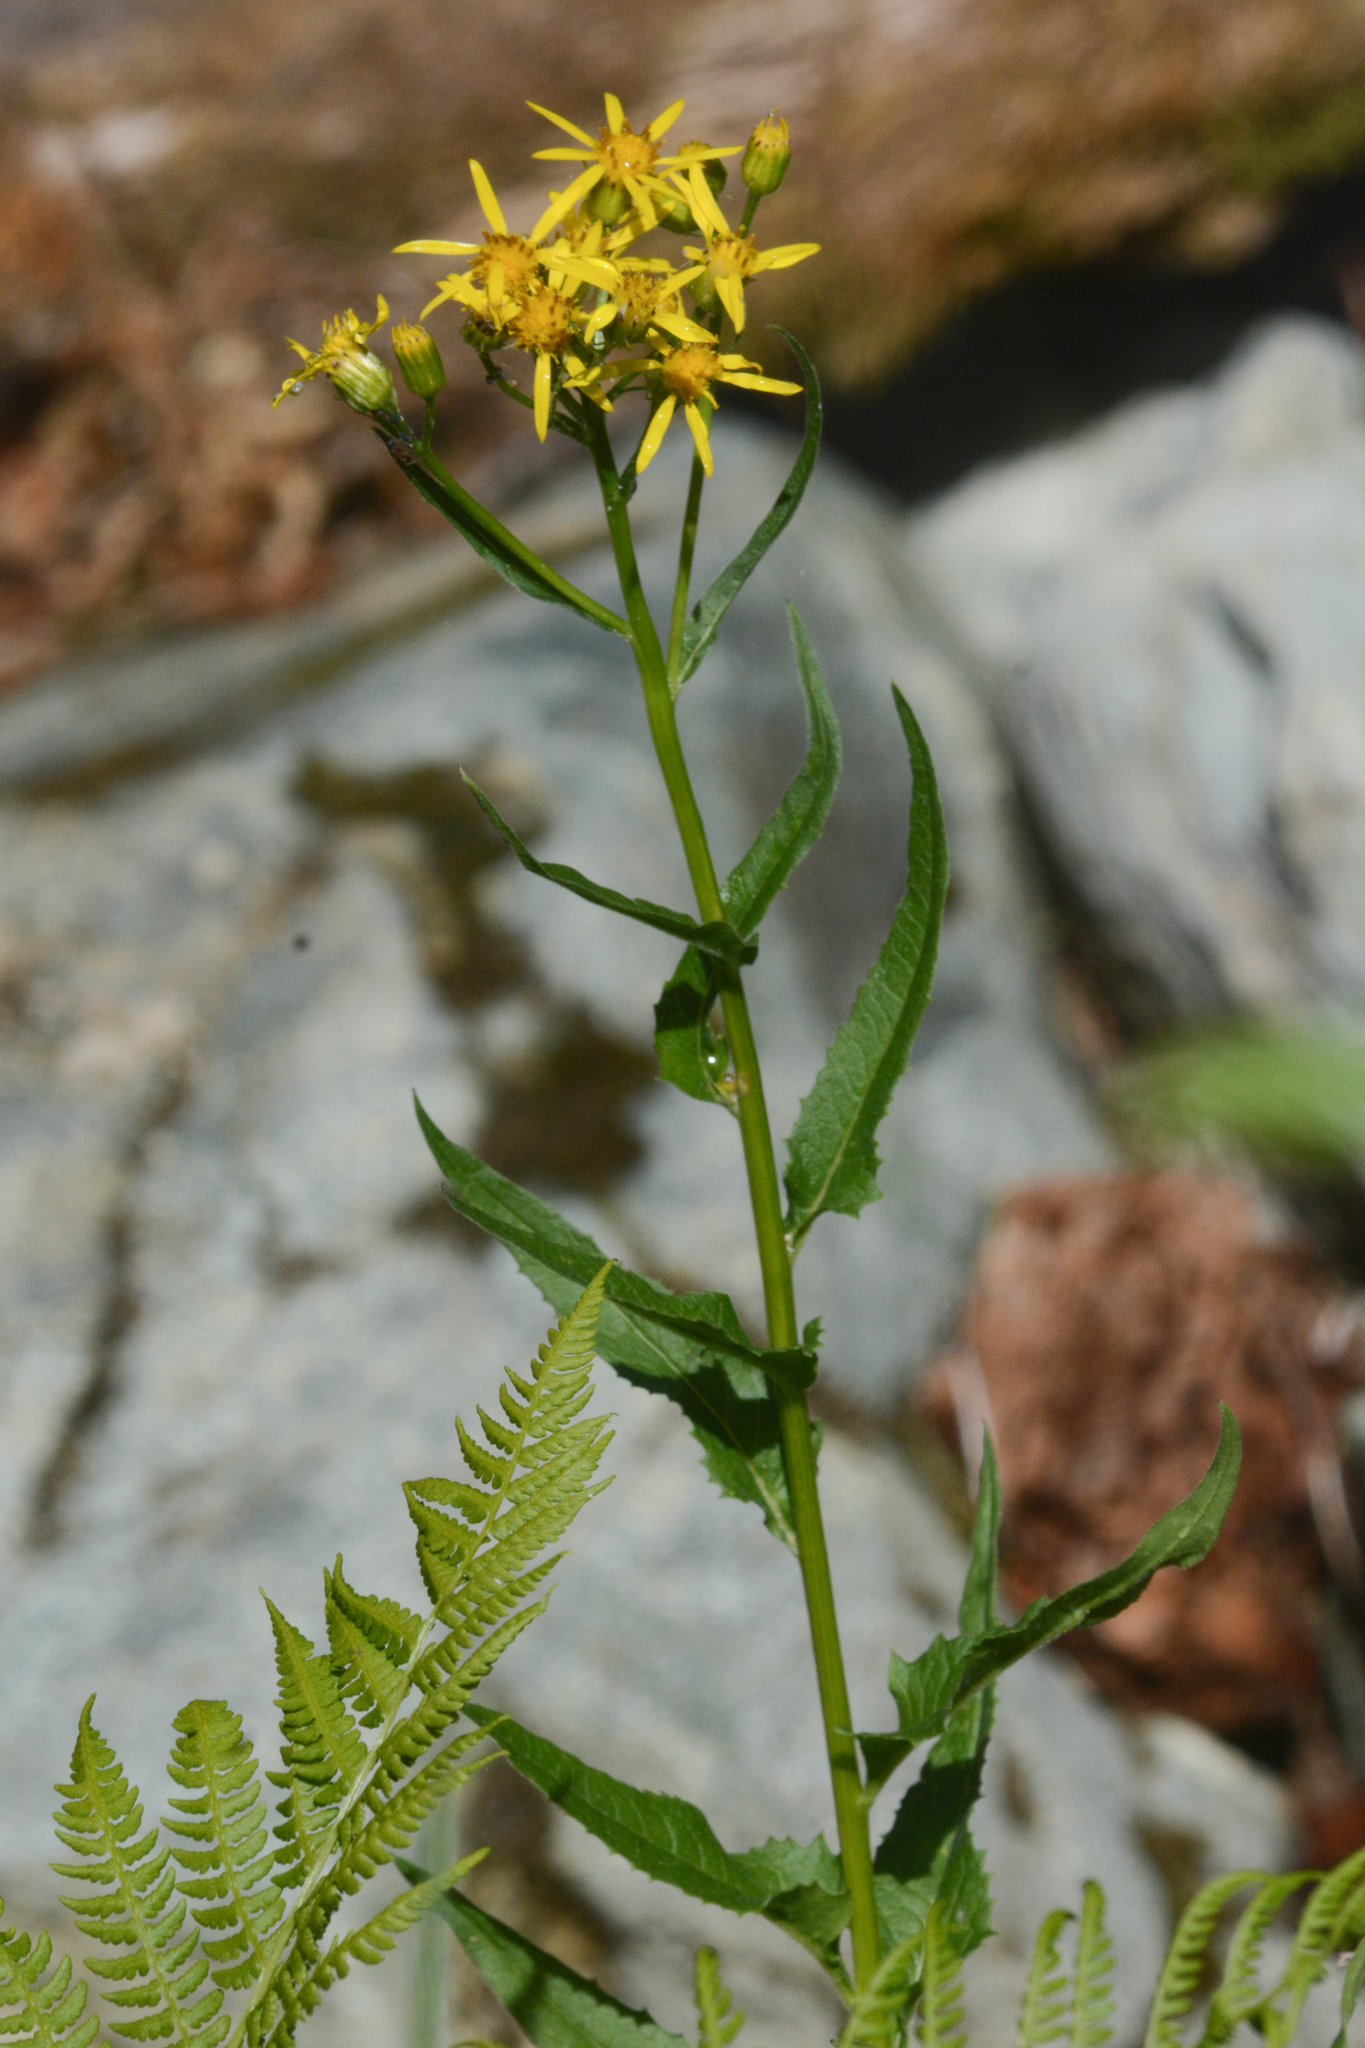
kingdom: Plantae
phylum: Tracheophyta
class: Magnoliopsida
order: Asterales
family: Asteraceae
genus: Senecio
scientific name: Senecio triangularis
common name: Arrowleaf butterweed
